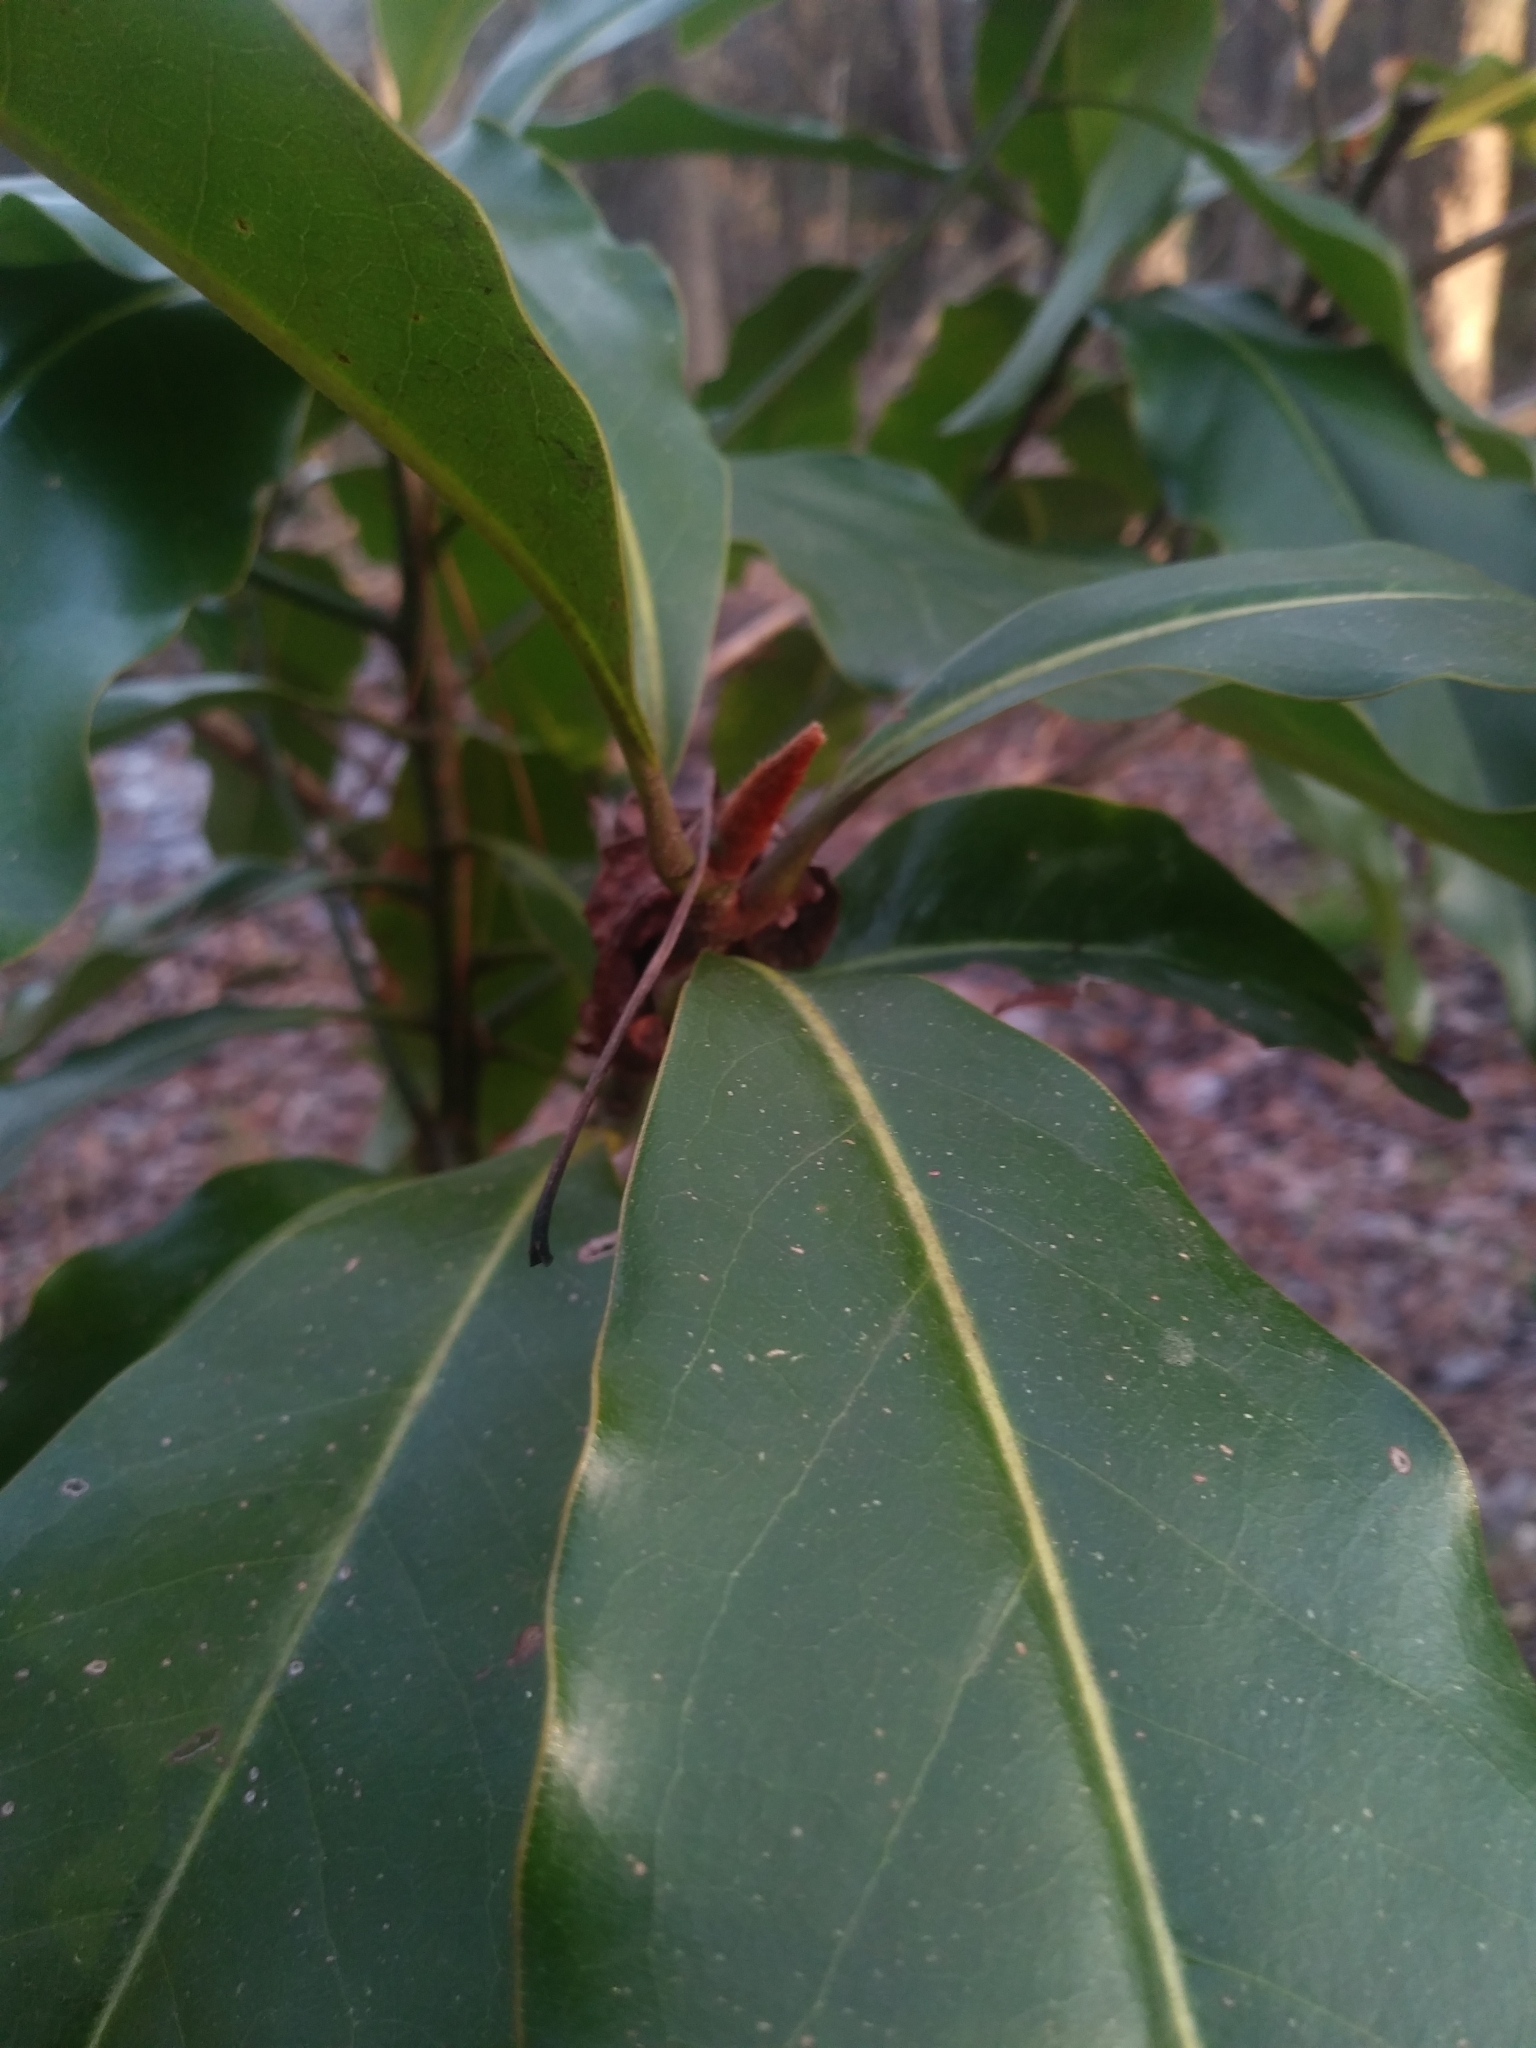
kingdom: Plantae
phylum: Tracheophyta
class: Magnoliopsida
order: Magnoliales
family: Magnoliaceae
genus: Magnolia
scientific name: Magnolia grandiflora
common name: Southern magnolia
